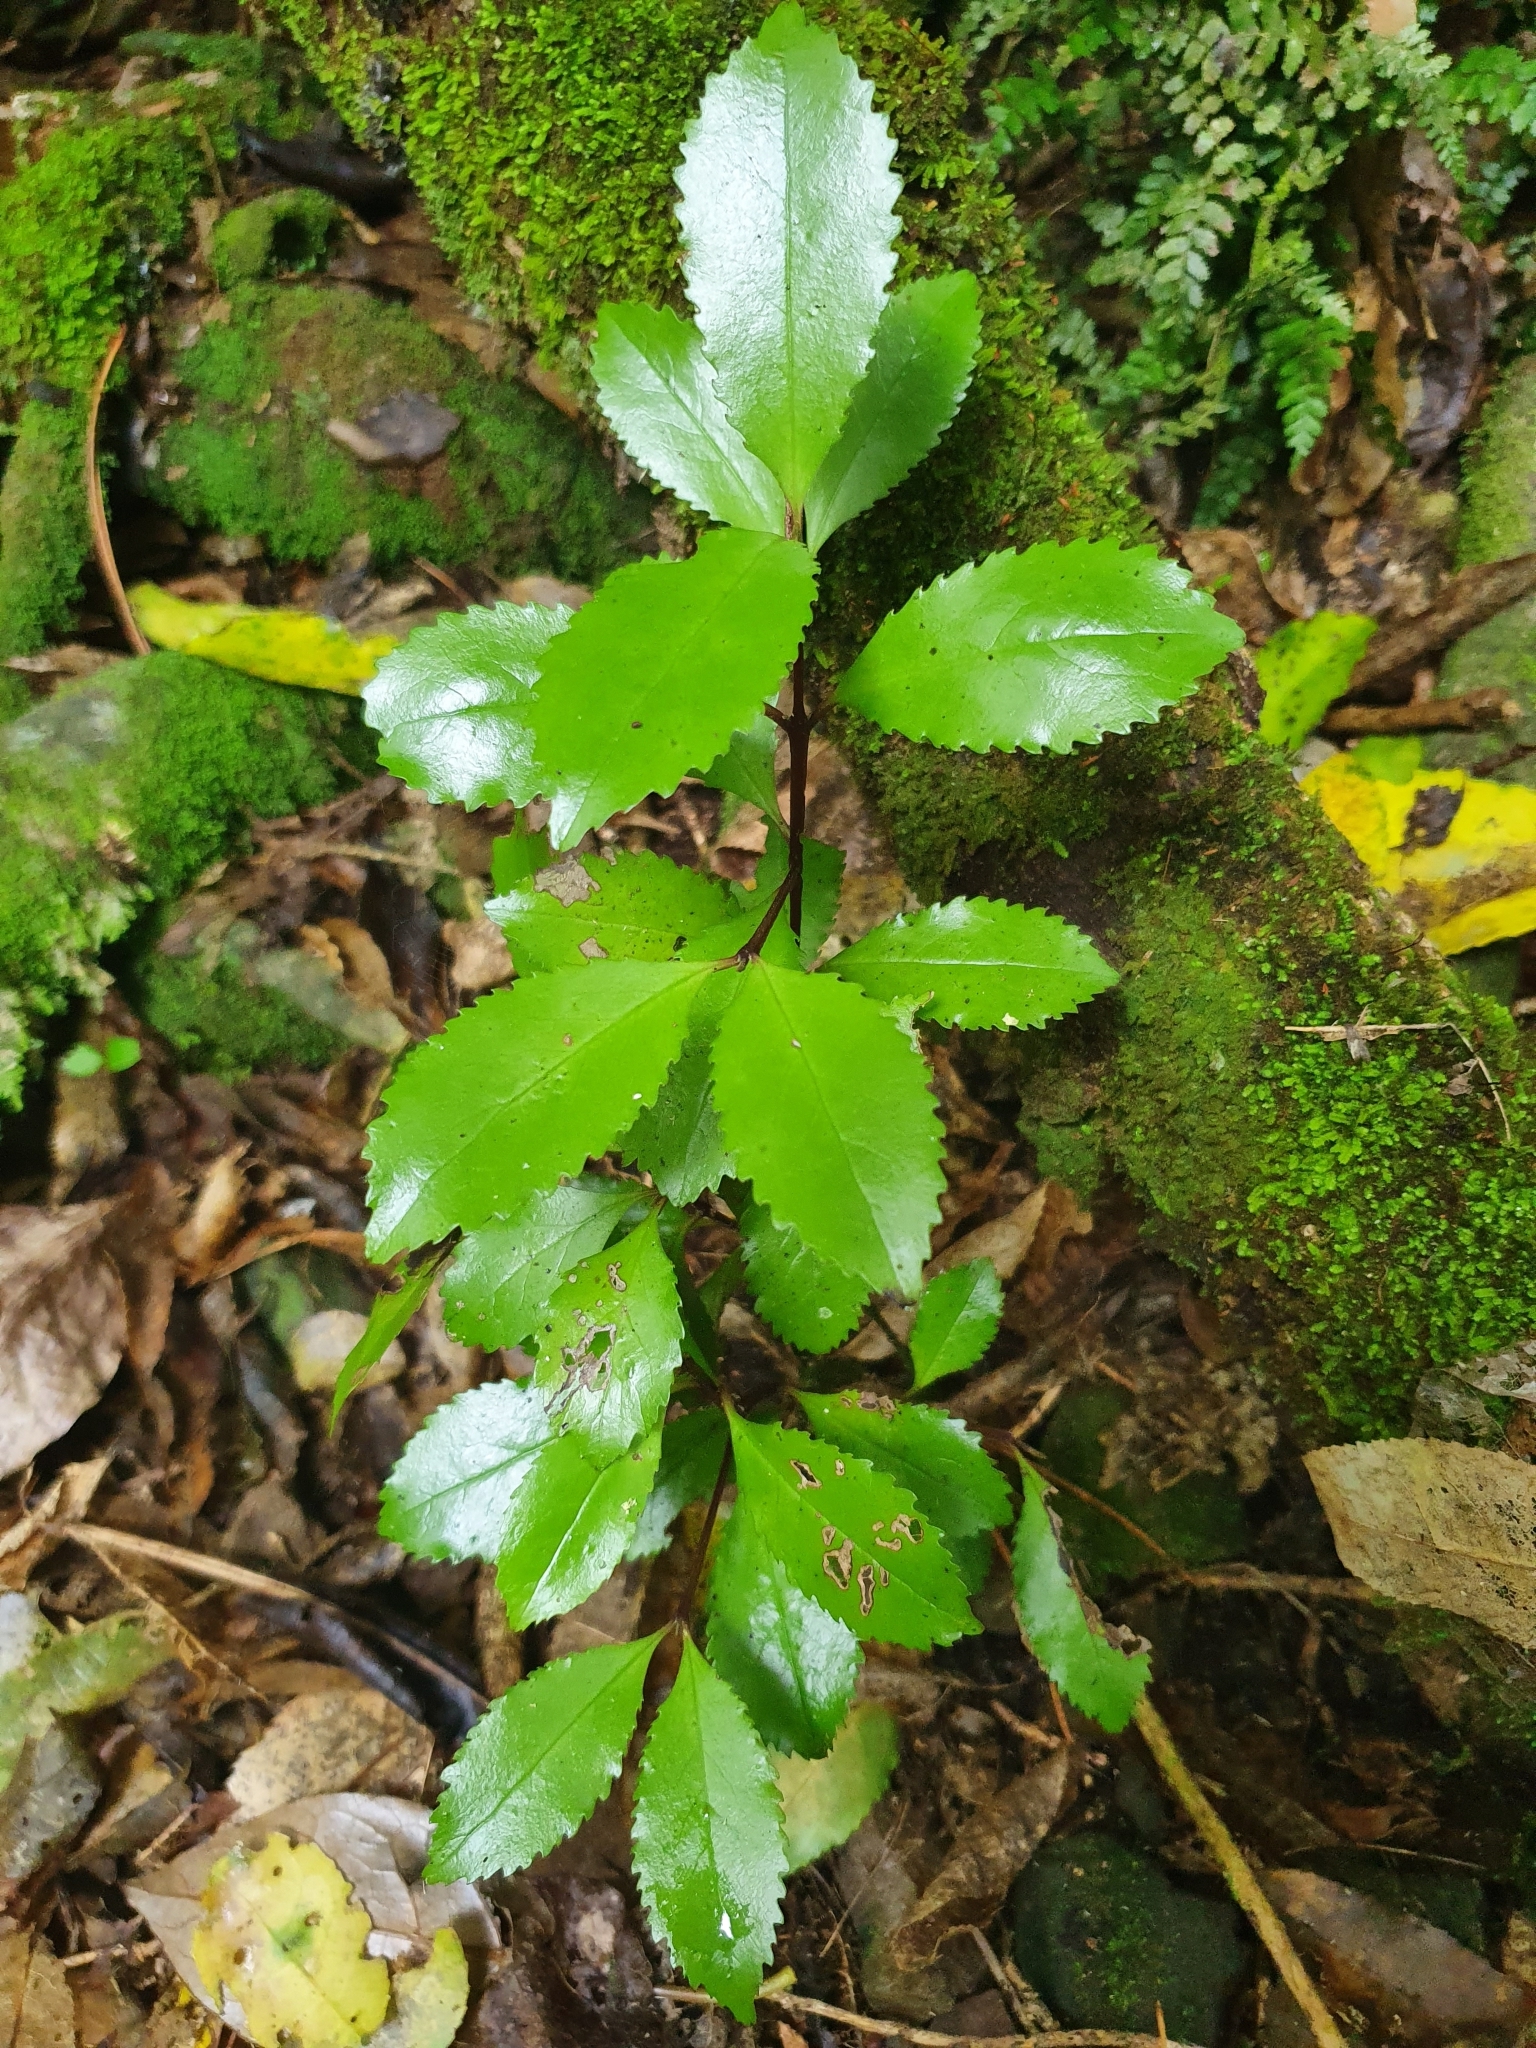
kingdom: Plantae
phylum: Tracheophyta
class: Magnoliopsida
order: Laurales
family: Atherospermataceae
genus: Laurelia
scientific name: Laurelia novae-zelandiae
